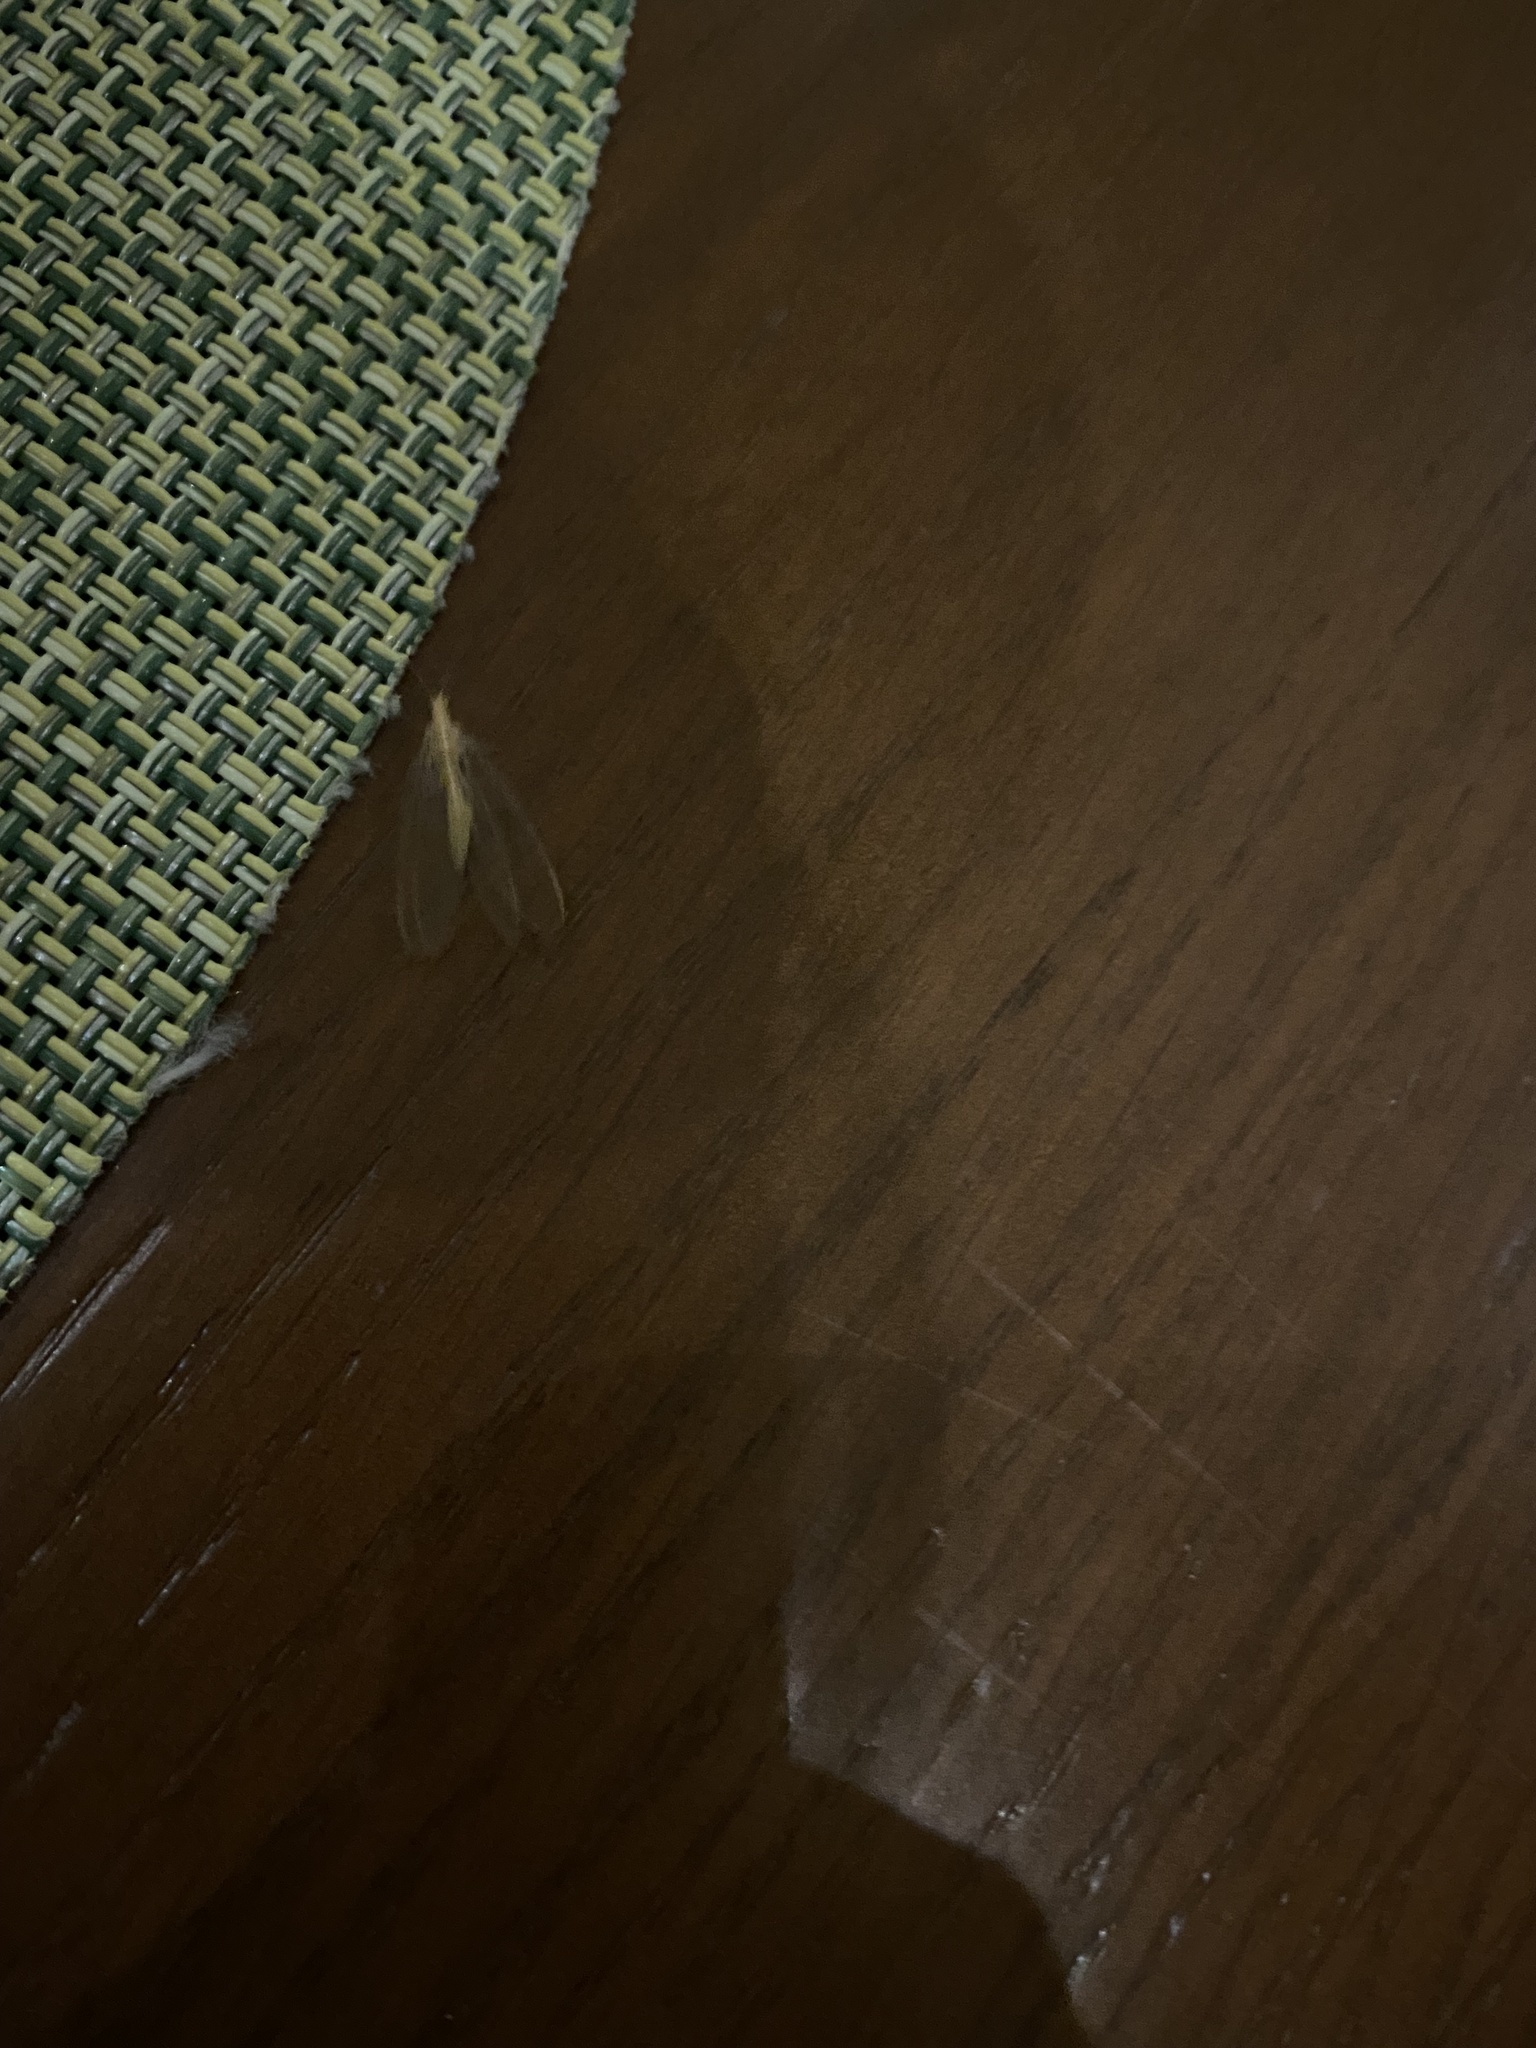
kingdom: Animalia
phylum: Arthropoda
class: Insecta
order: Neuroptera
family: Chrysopidae
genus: Chrysoperla
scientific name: Chrysoperla
